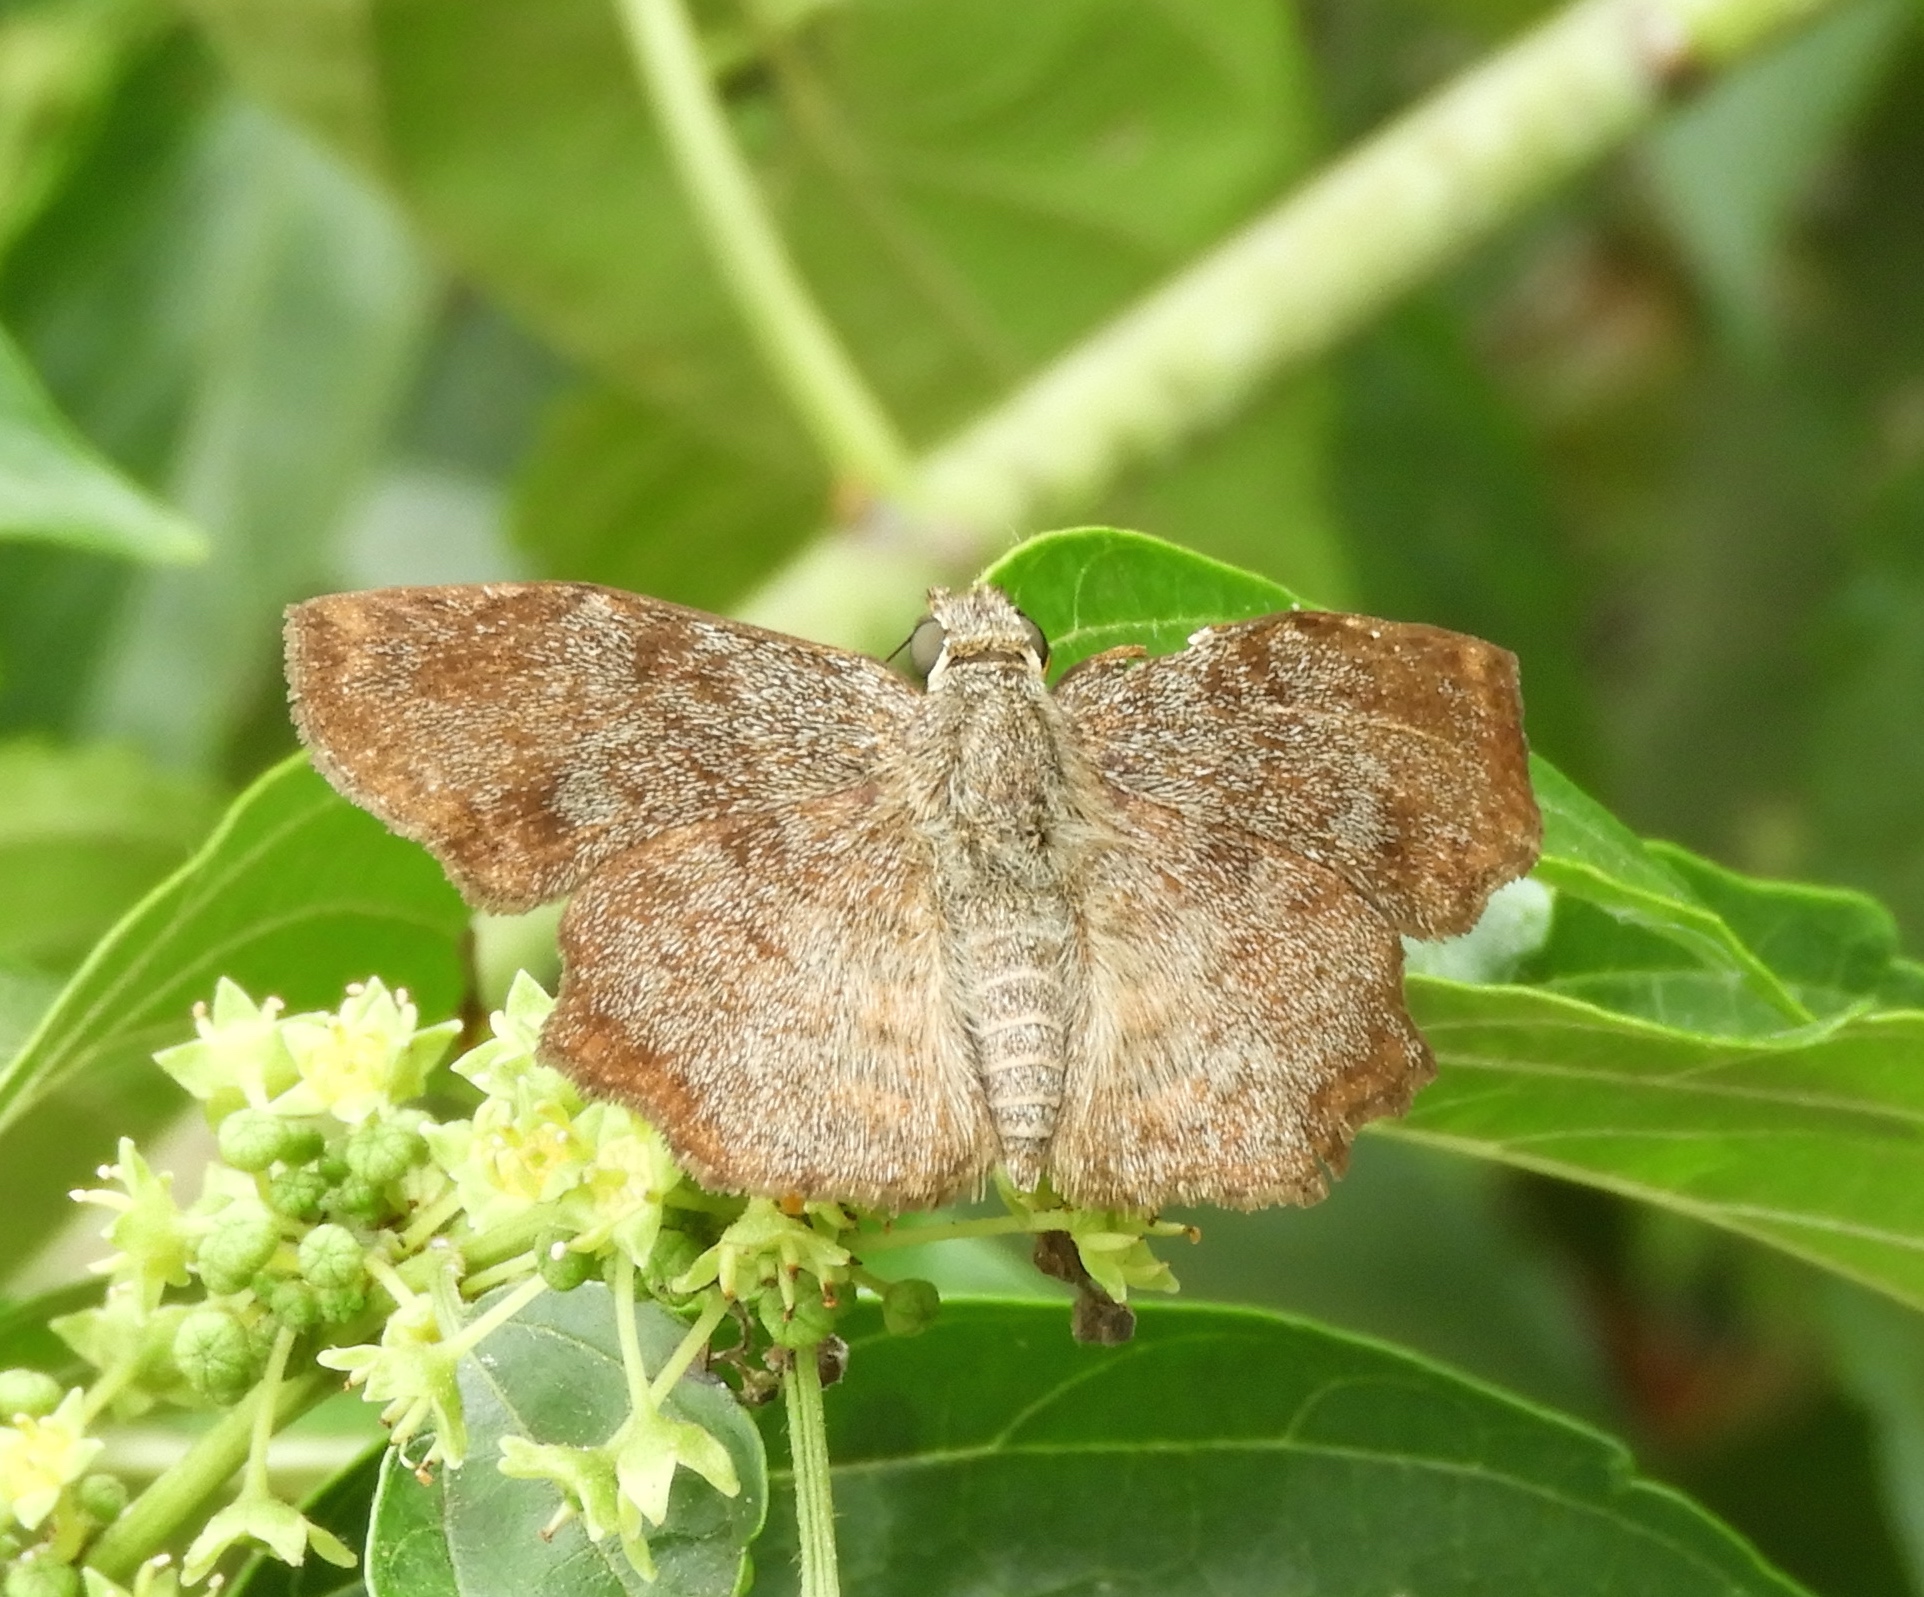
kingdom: Animalia
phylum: Arthropoda
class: Insecta
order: Lepidoptera
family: Hesperiidae
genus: Antigonus
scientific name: Antigonus erosus
